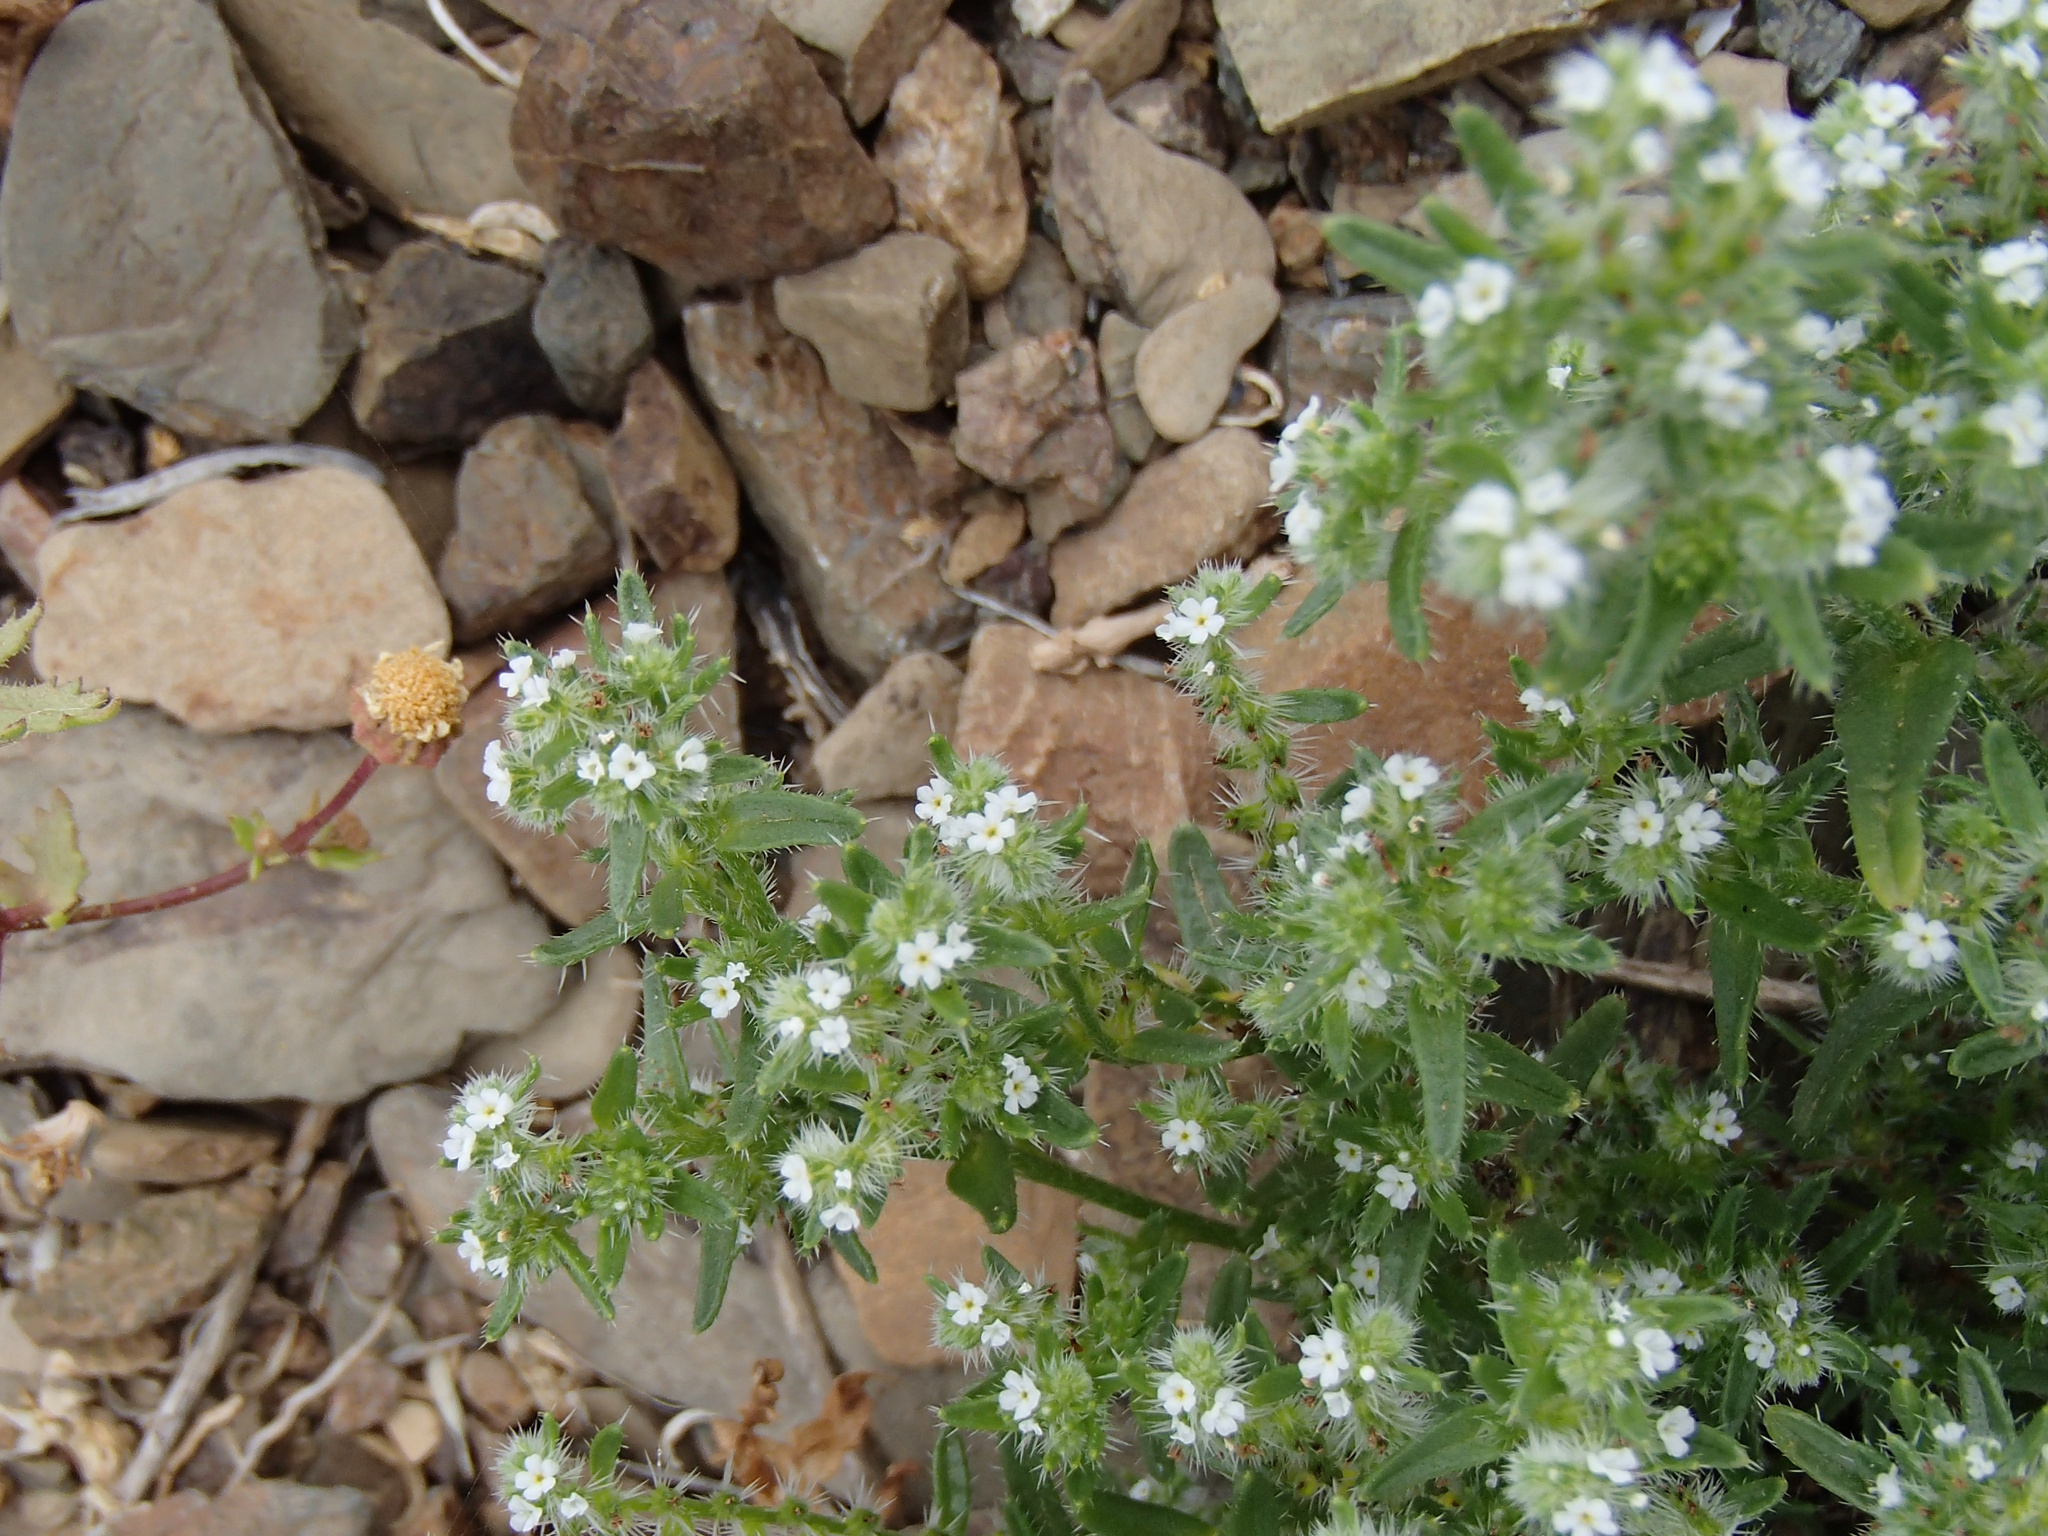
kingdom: Plantae
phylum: Tracheophyta
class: Magnoliopsida
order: Boraginales
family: Boraginaceae
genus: Cryptantha
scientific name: Cryptantha maritima
